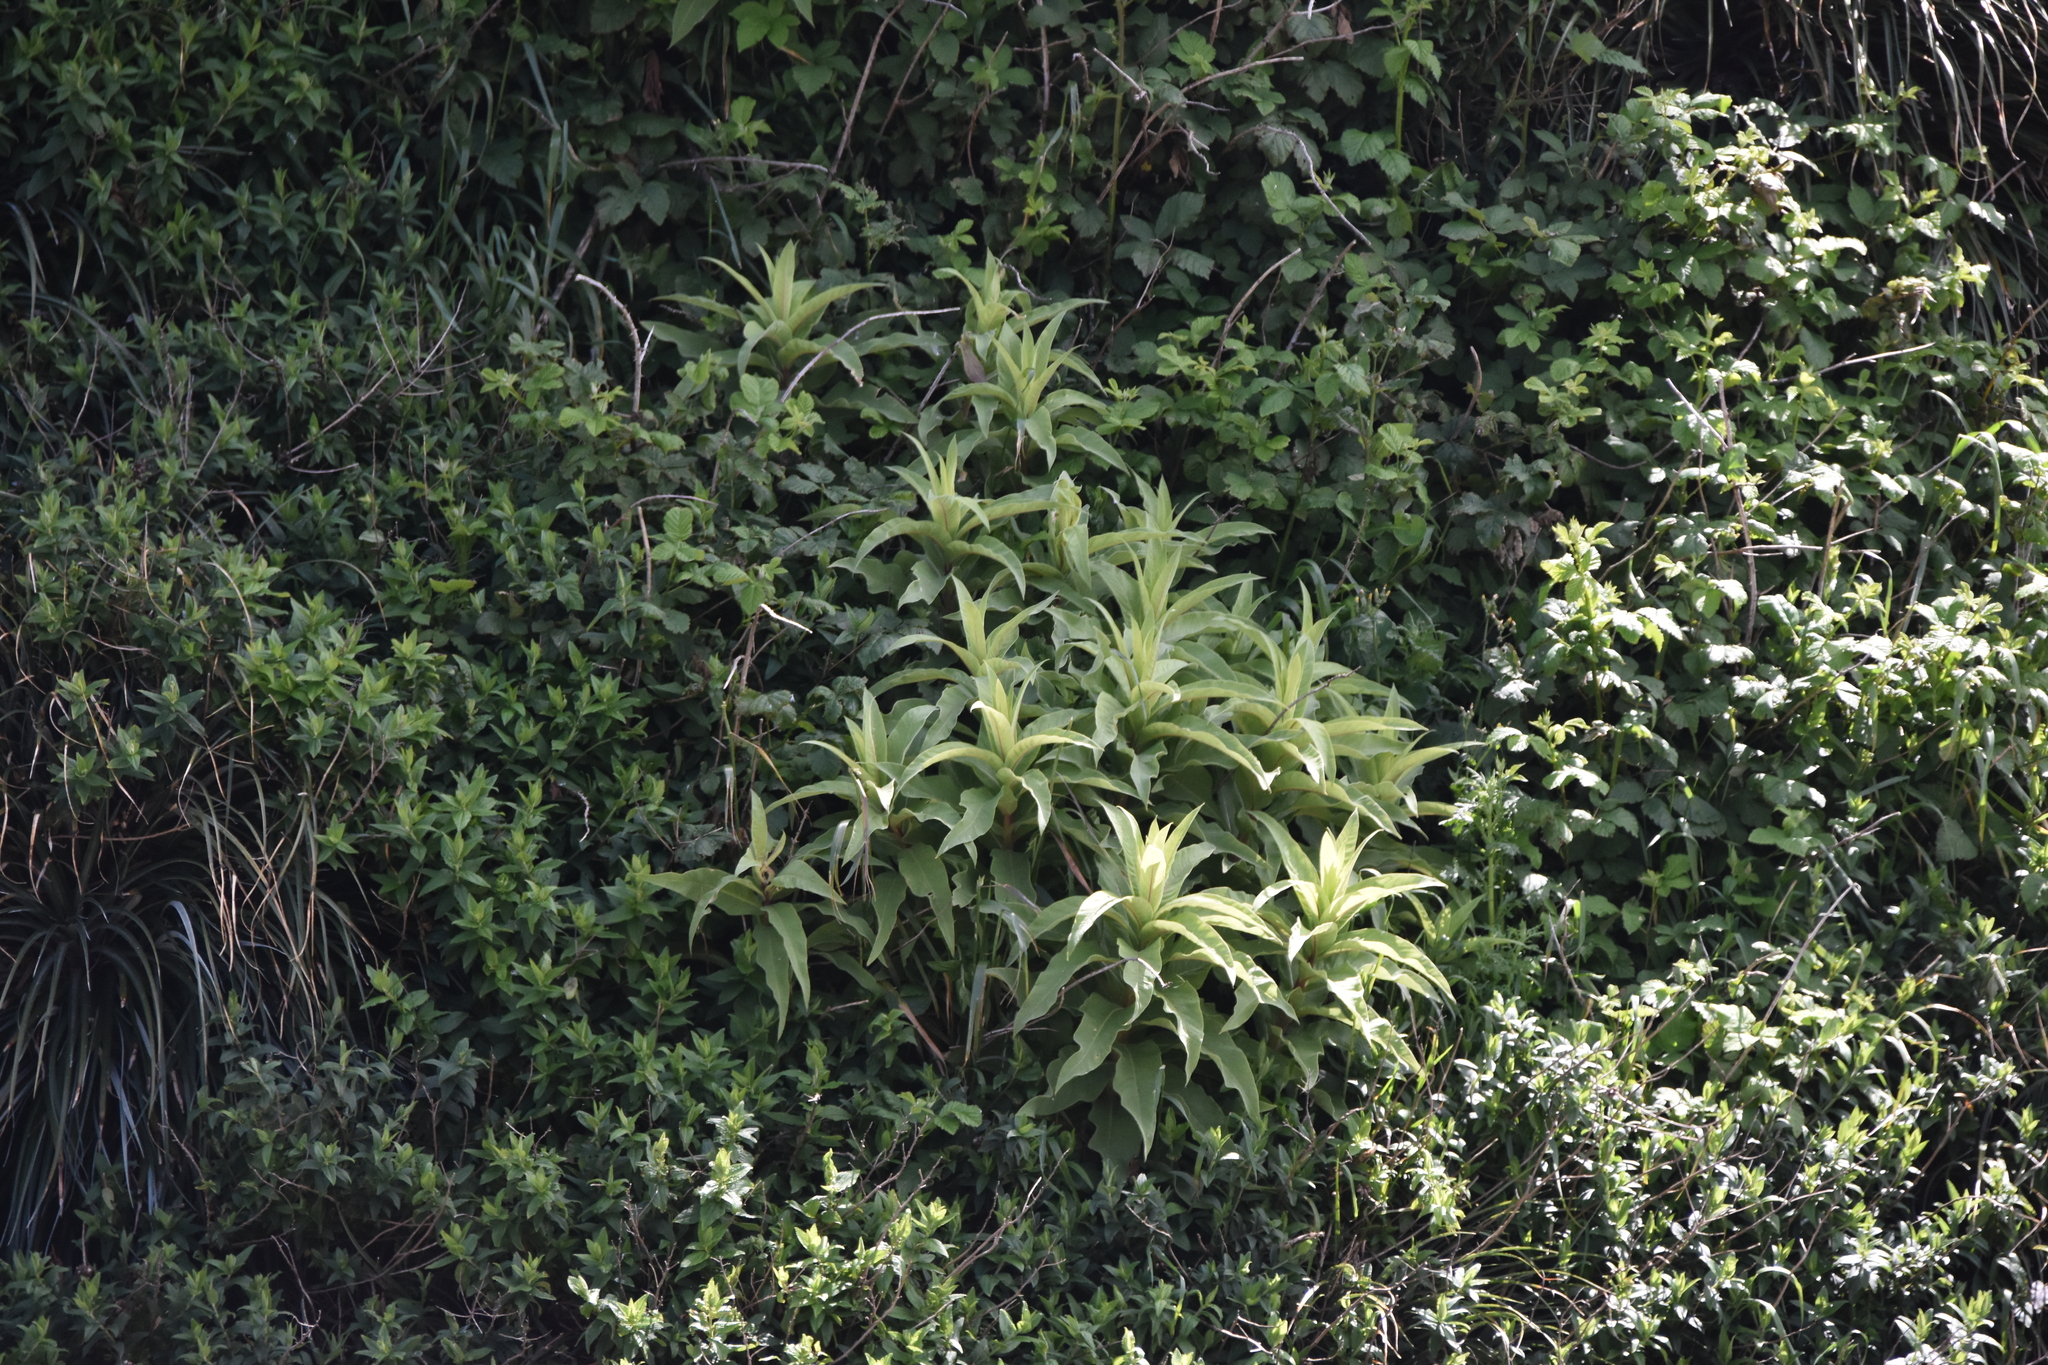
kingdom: Plantae
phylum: Tracheophyta
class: Magnoliopsida
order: Asterales
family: Campanulaceae
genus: Lobelia
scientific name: Lobelia tupa
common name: Devil's-tobacco
